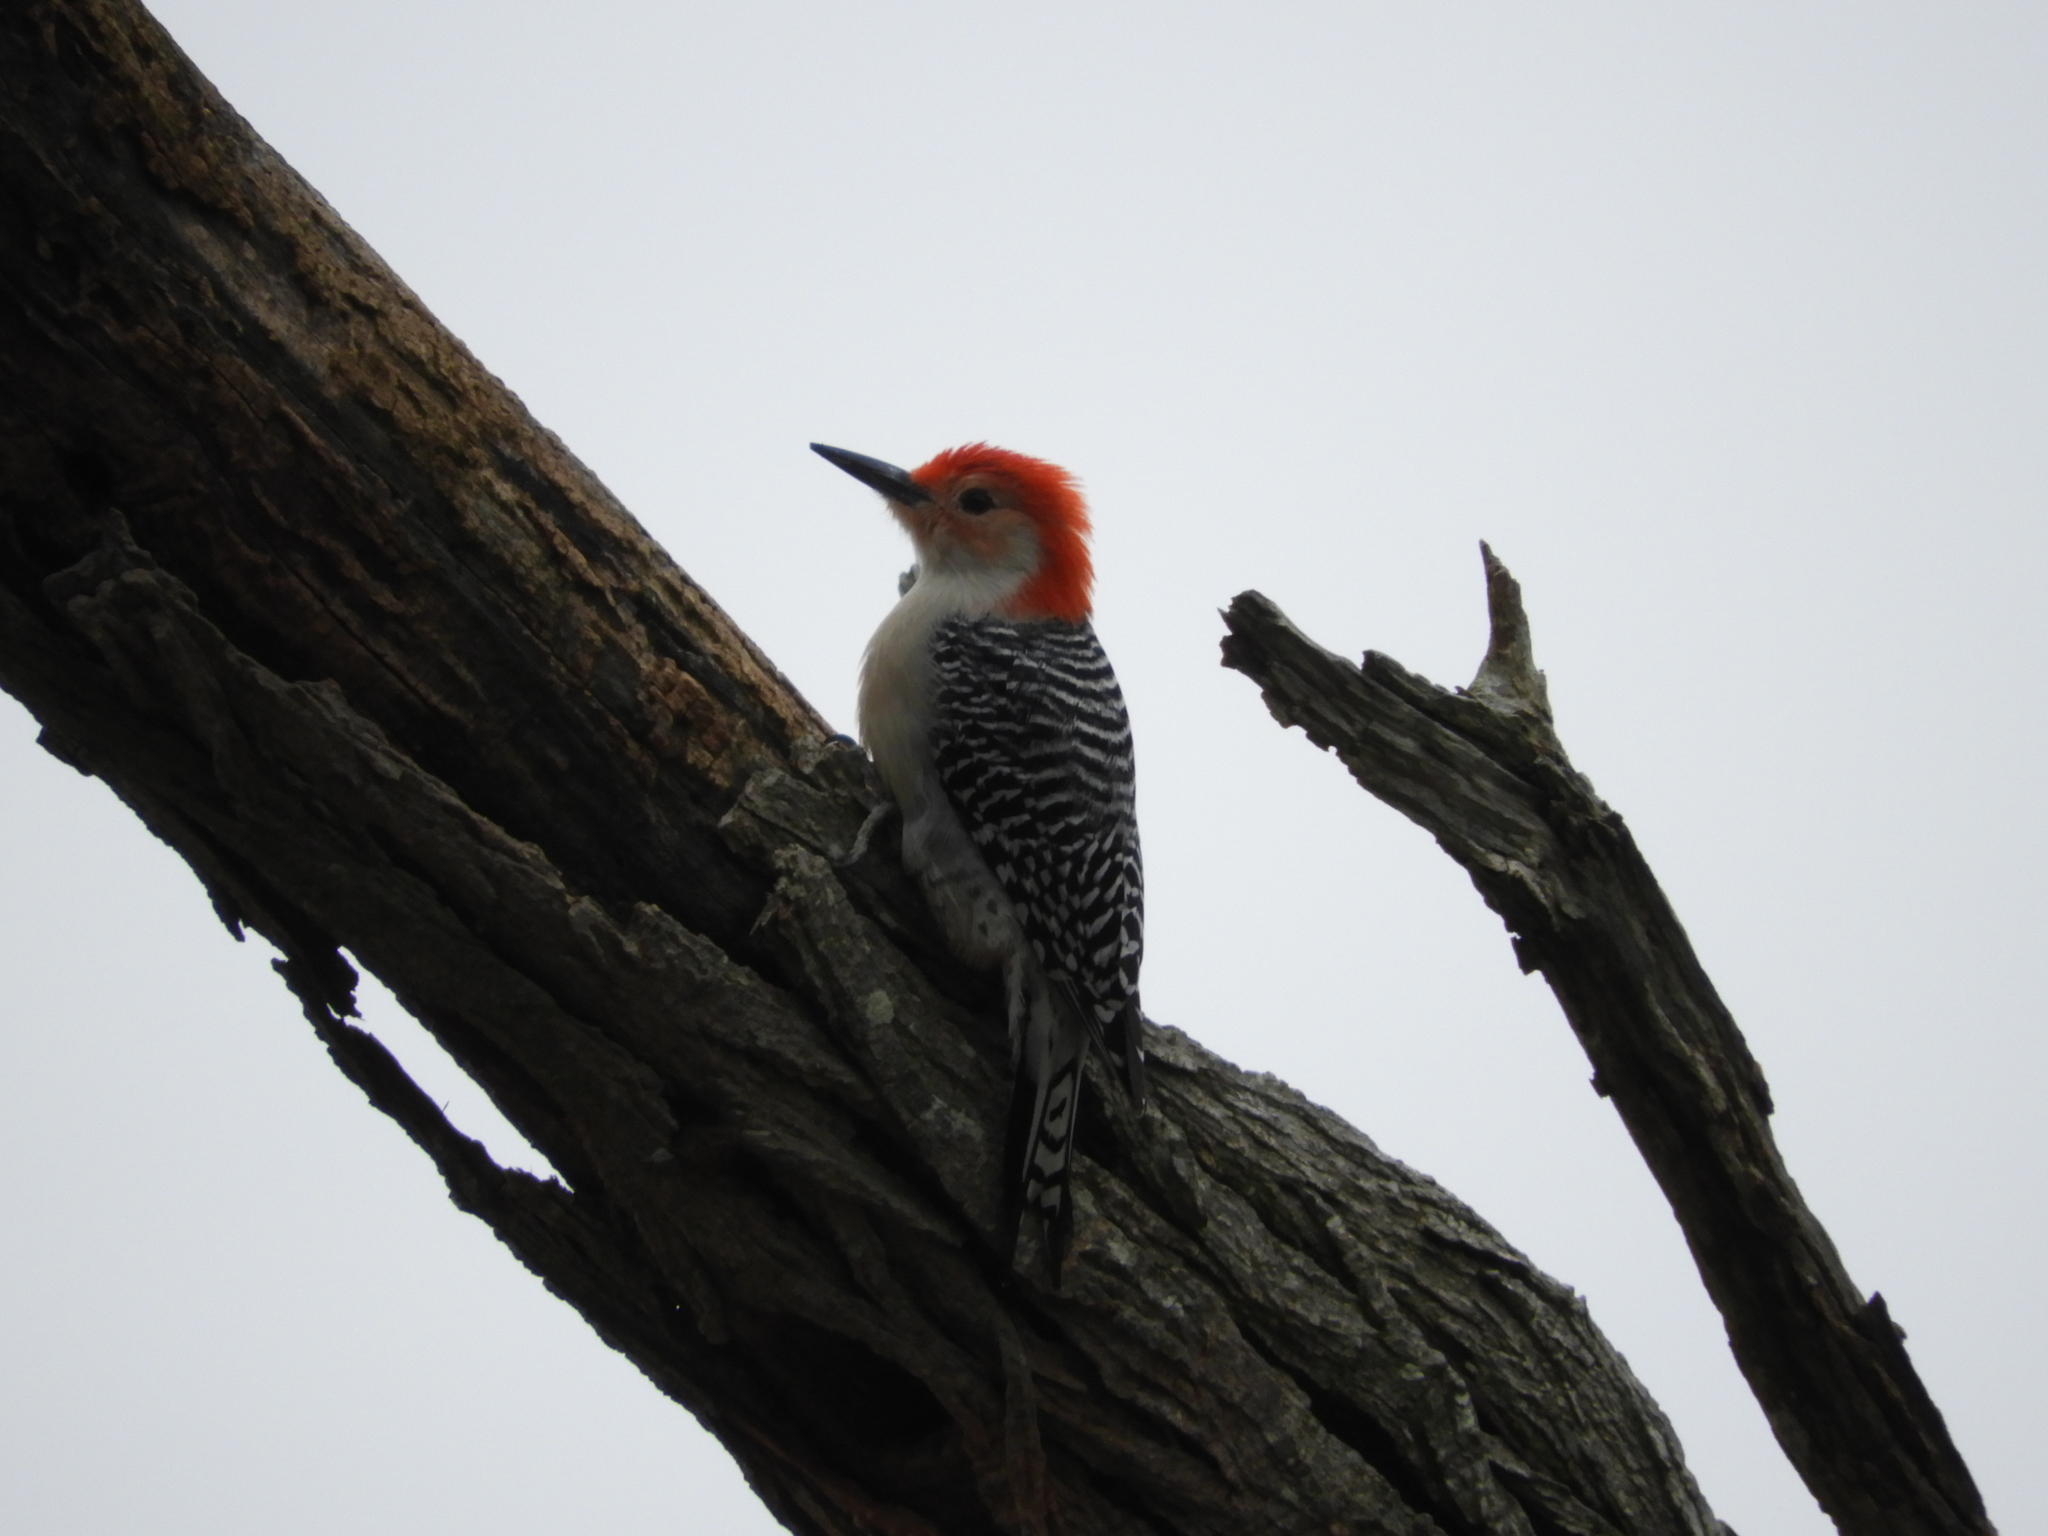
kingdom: Animalia
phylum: Chordata
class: Aves
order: Piciformes
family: Picidae
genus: Melanerpes
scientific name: Melanerpes carolinus
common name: Red-bellied woodpecker
